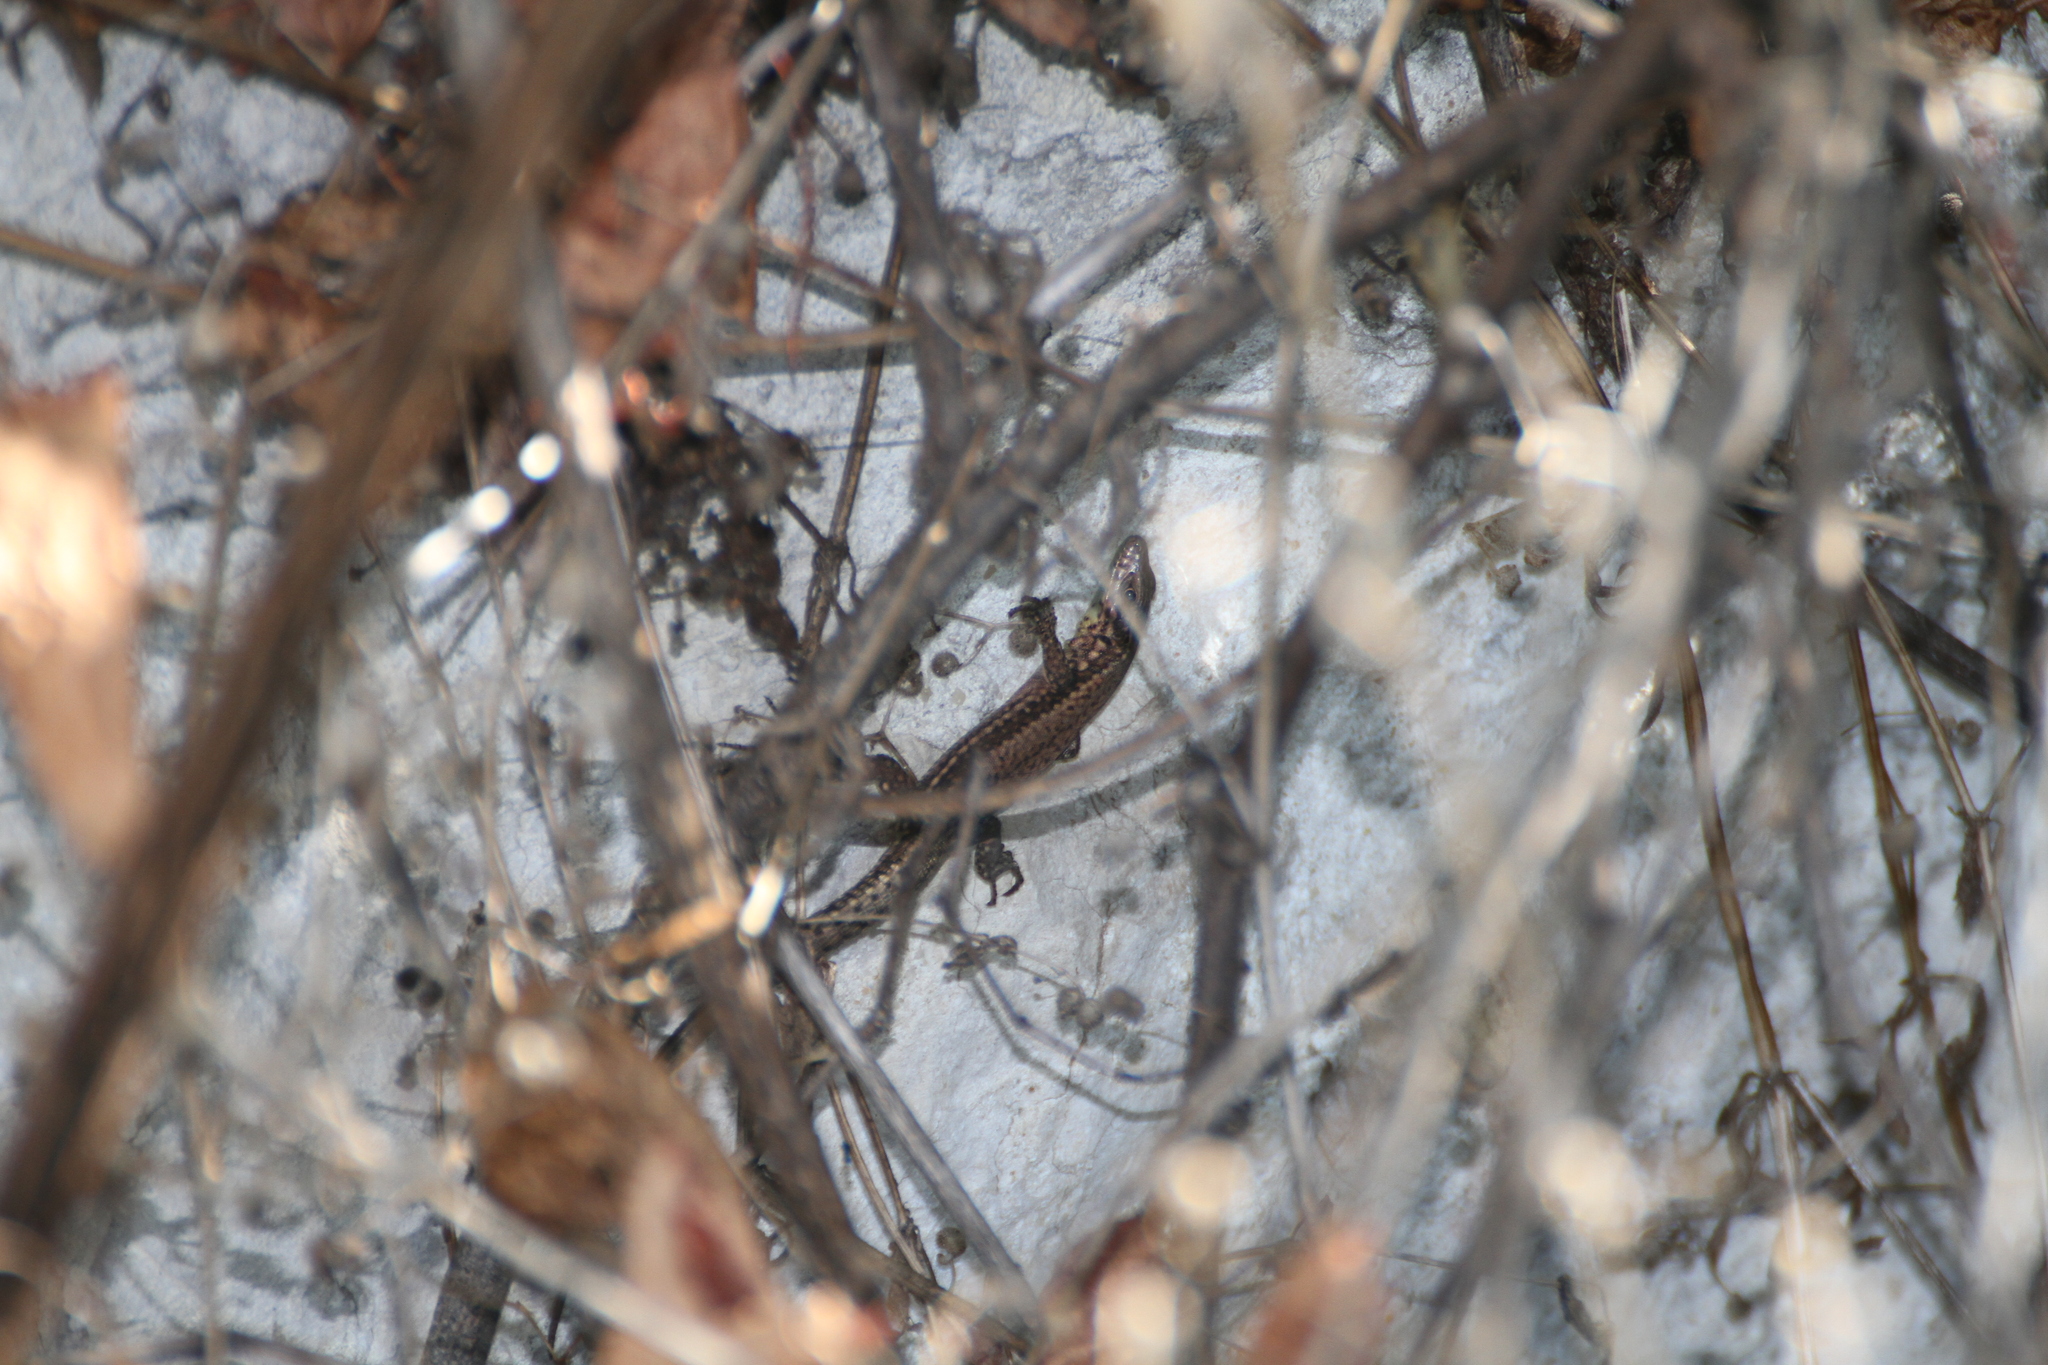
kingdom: Animalia
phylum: Chordata
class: Squamata
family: Lacertidae
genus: Podarcis
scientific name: Podarcis muralis
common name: Common wall lizard
